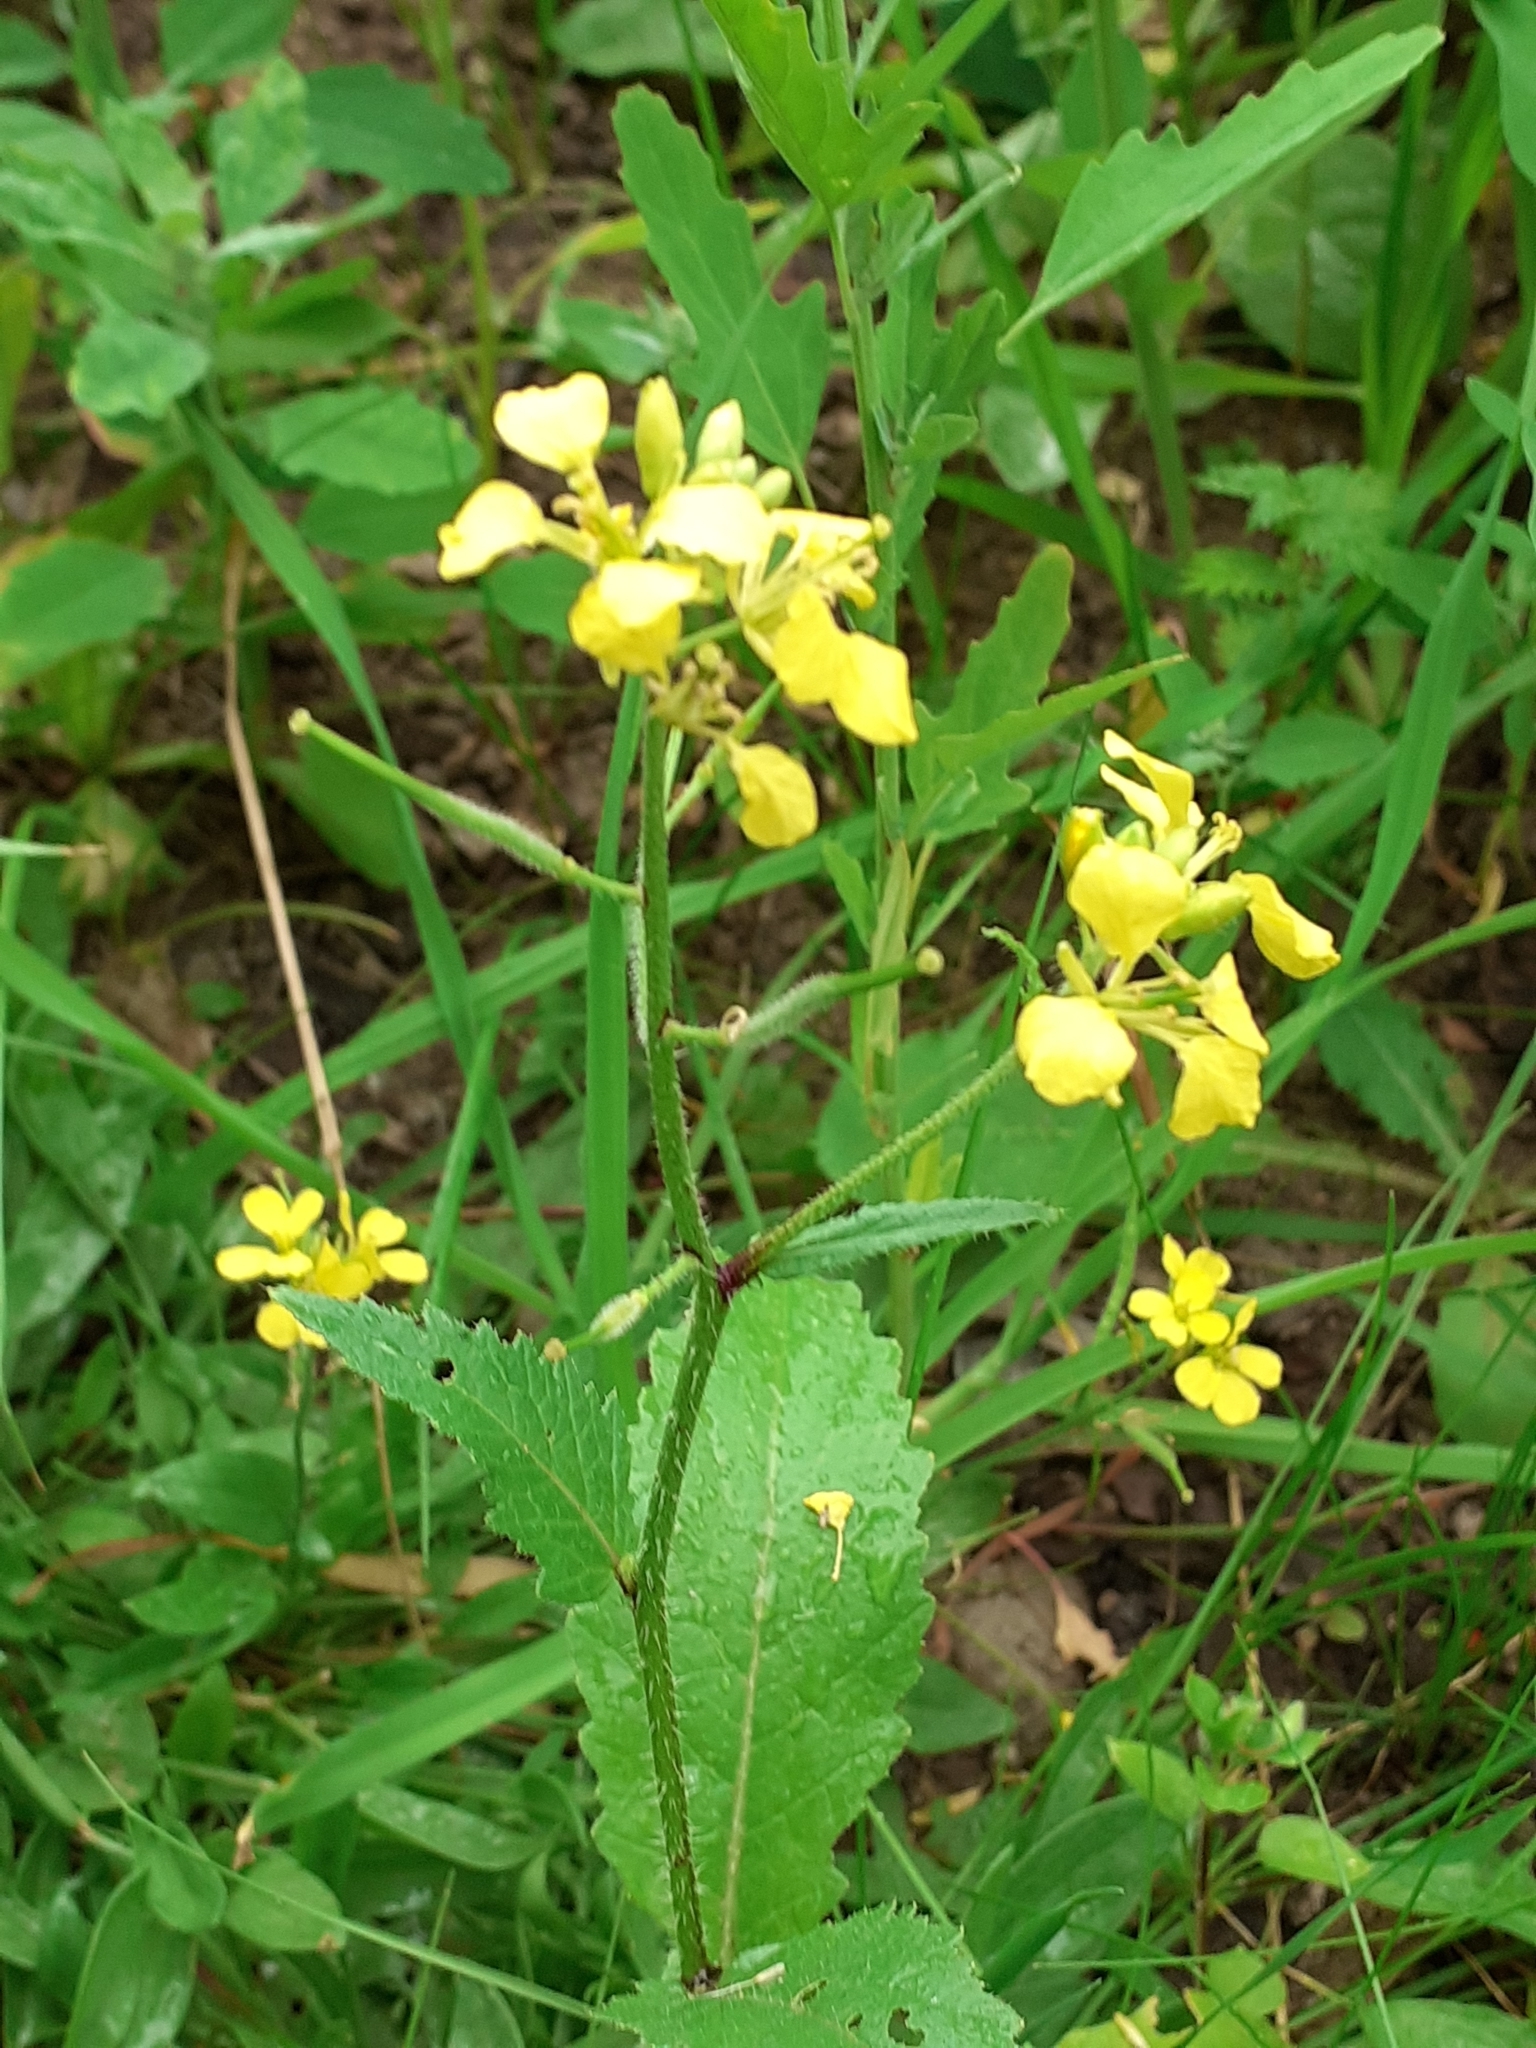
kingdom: Plantae
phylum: Tracheophyta
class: Magnoliopsida
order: Brassicales
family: Brassicaceae
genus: Sinapis
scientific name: Sinapis arvensis
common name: Charlock
